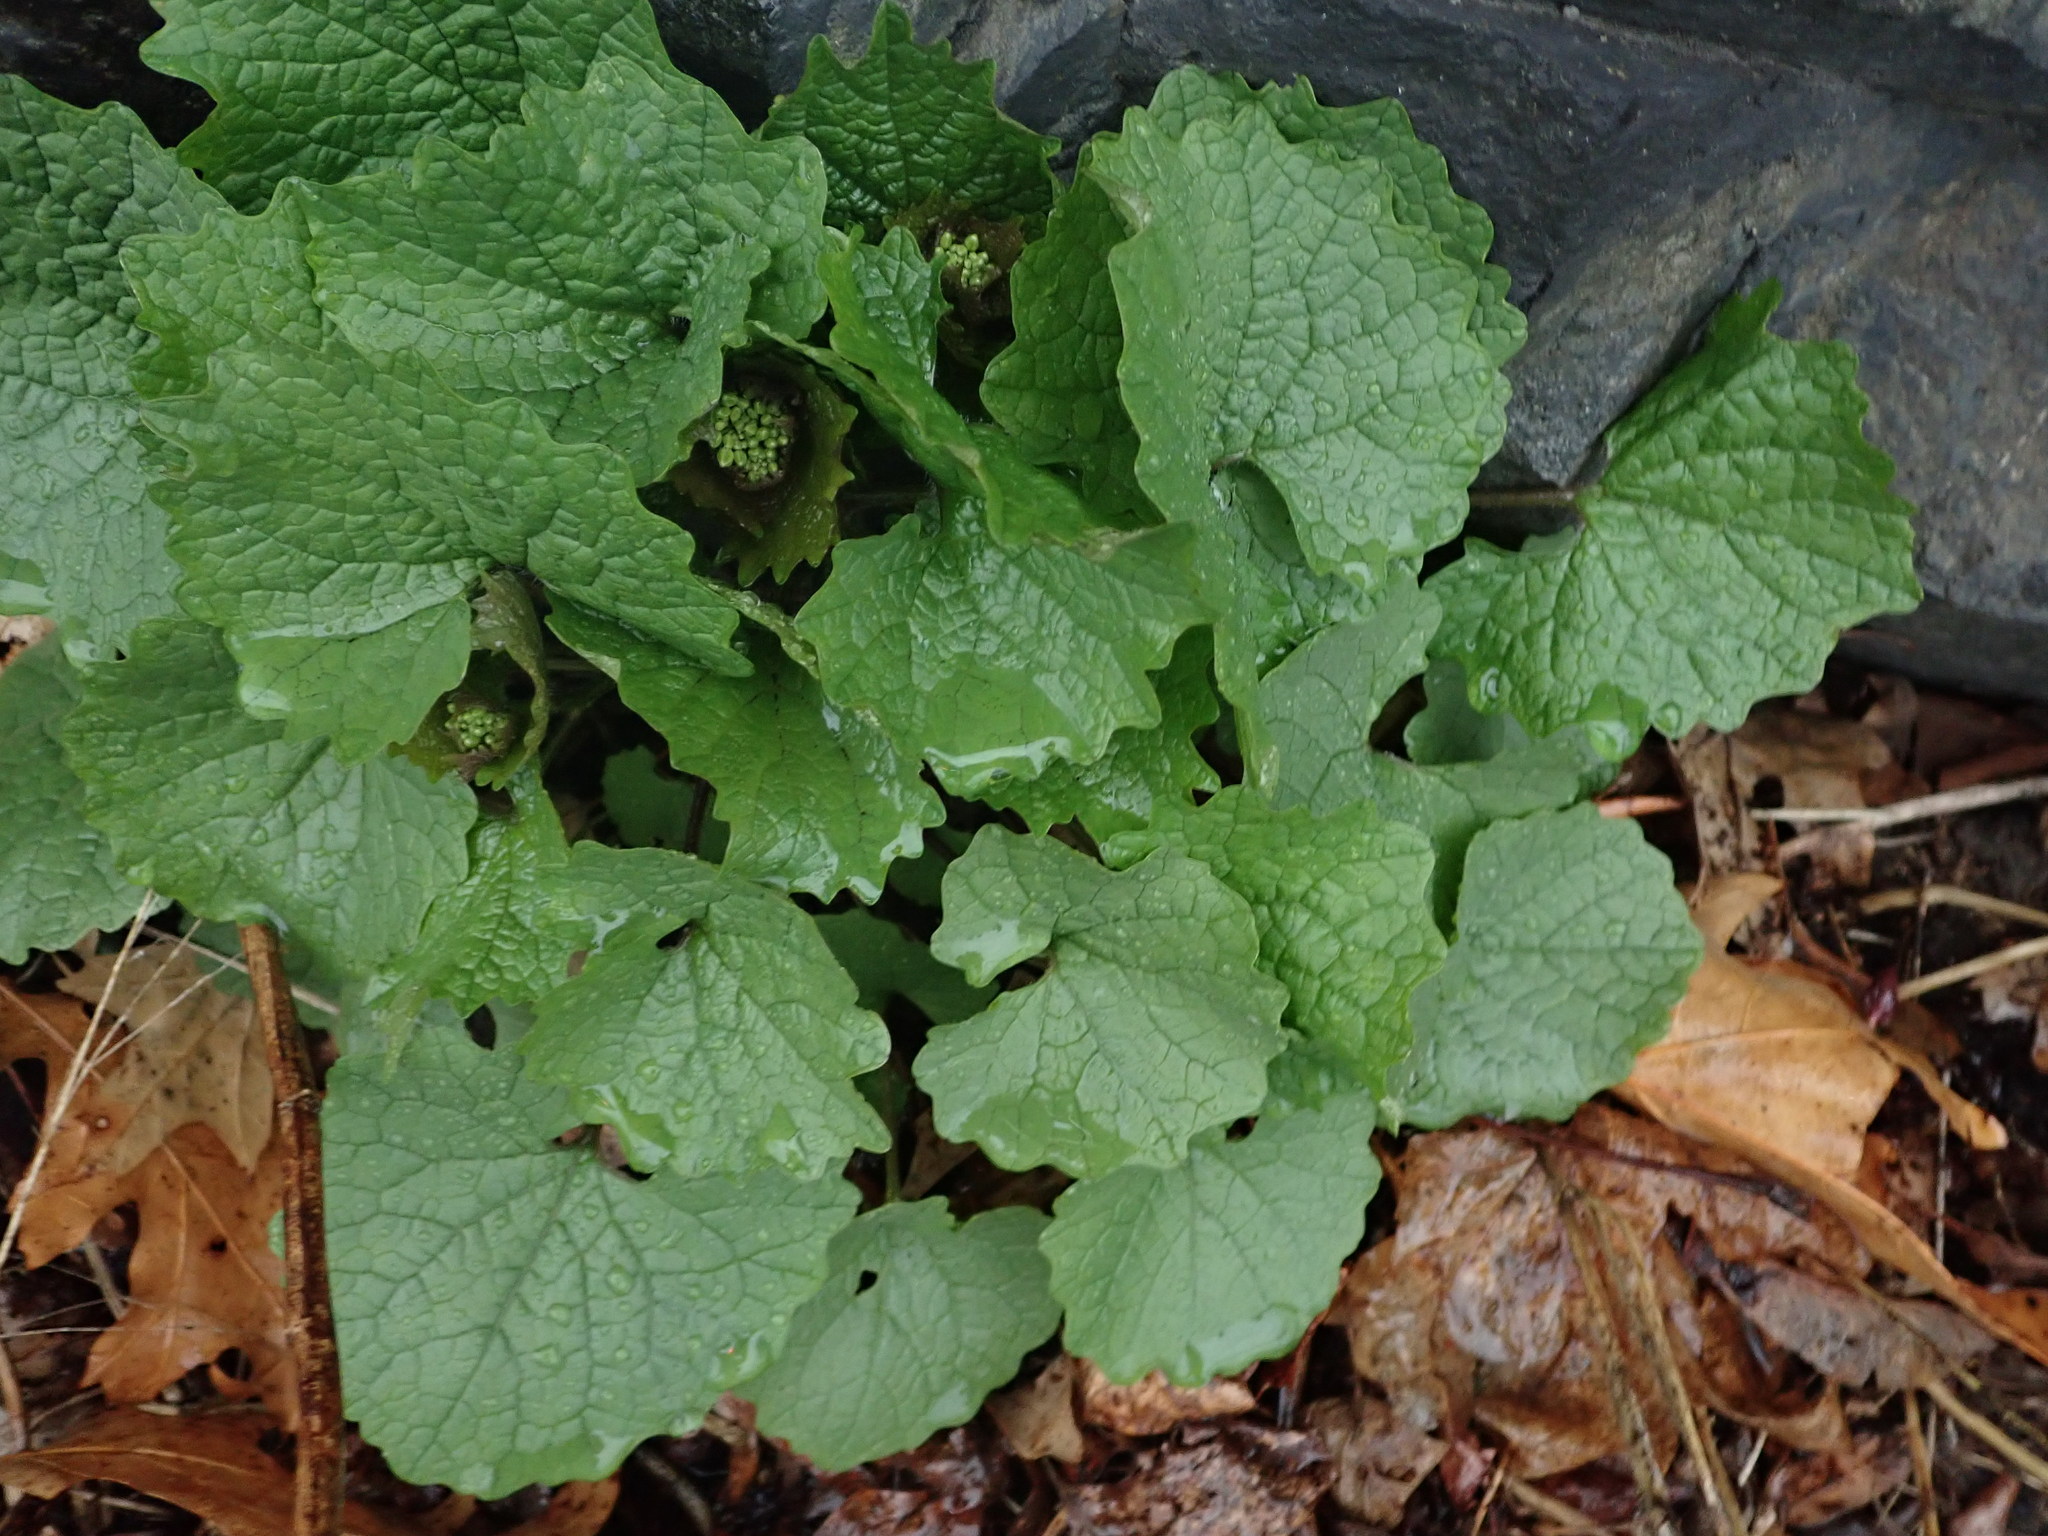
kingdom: Plantae
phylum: Tracheophyta
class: Magnoliopsida
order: Brassicales
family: Brassicaceae
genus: Alliaria
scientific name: Alliaria petiolata
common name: Garlic mustard
